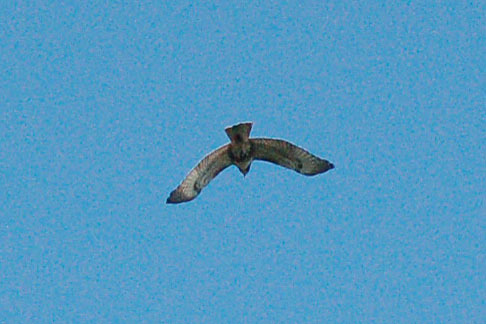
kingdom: Animalia
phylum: Chordata
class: Aves
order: Accipitriformes
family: Accipitridae
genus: Buteo
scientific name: Buteo jamaicensis
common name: Red-tailed hawk
